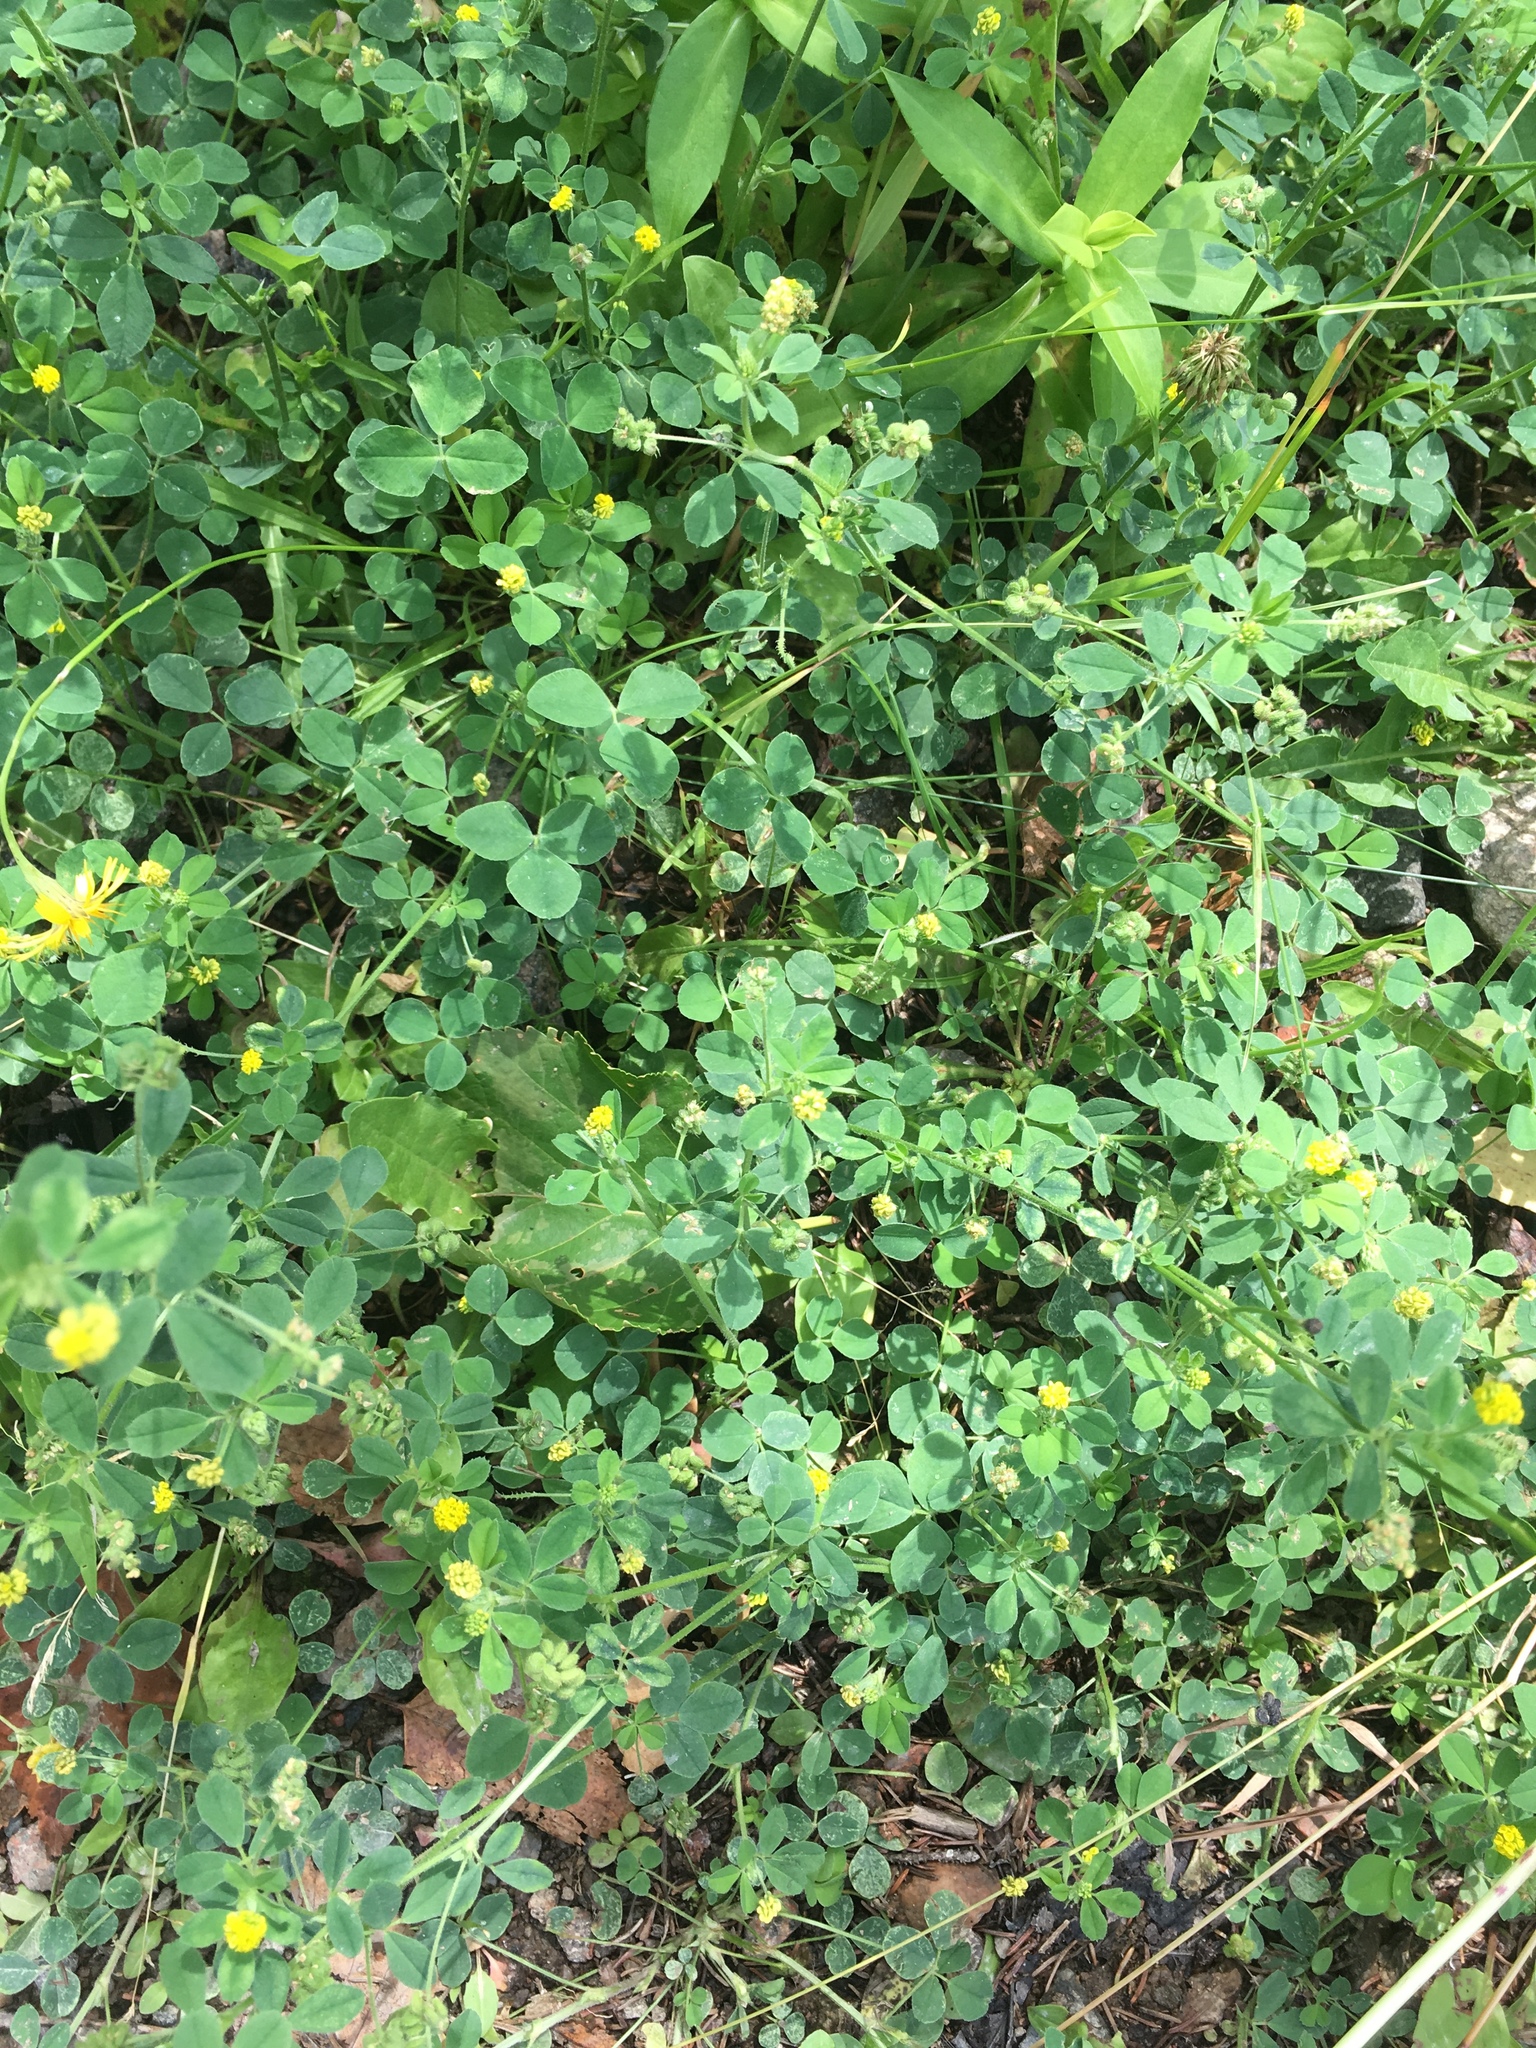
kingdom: Plantae
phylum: Tracheophyta
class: Magnoliopsida
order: Fabales
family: Fabaceae
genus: Medicago
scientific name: Medicago lupulina
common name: Black medick
